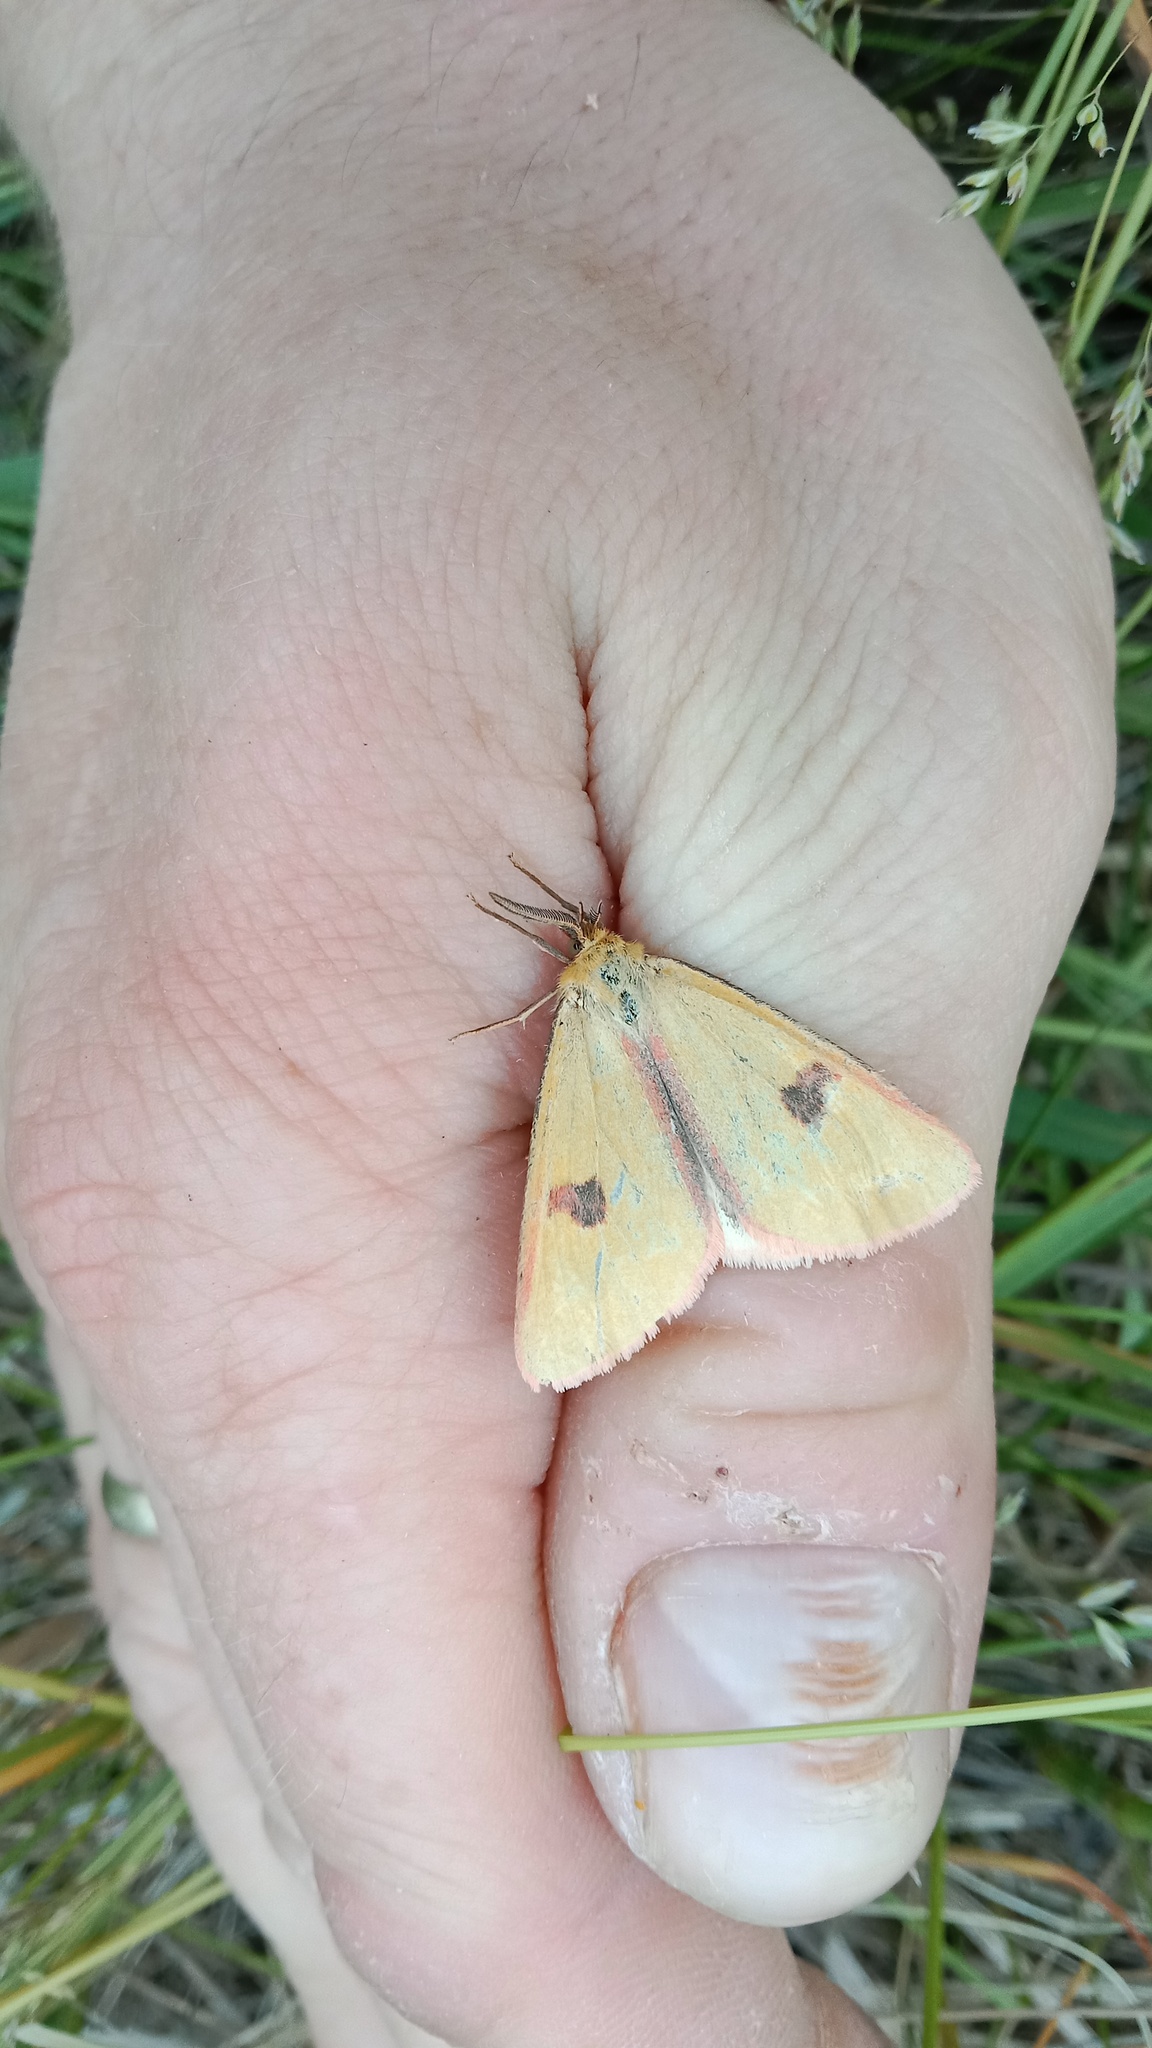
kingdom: Animalia
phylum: Arthropoda
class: Insecta
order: Lepidoptera
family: Erebidae
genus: Diacrisia
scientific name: Diacrisia sannio
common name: Clouded buff
